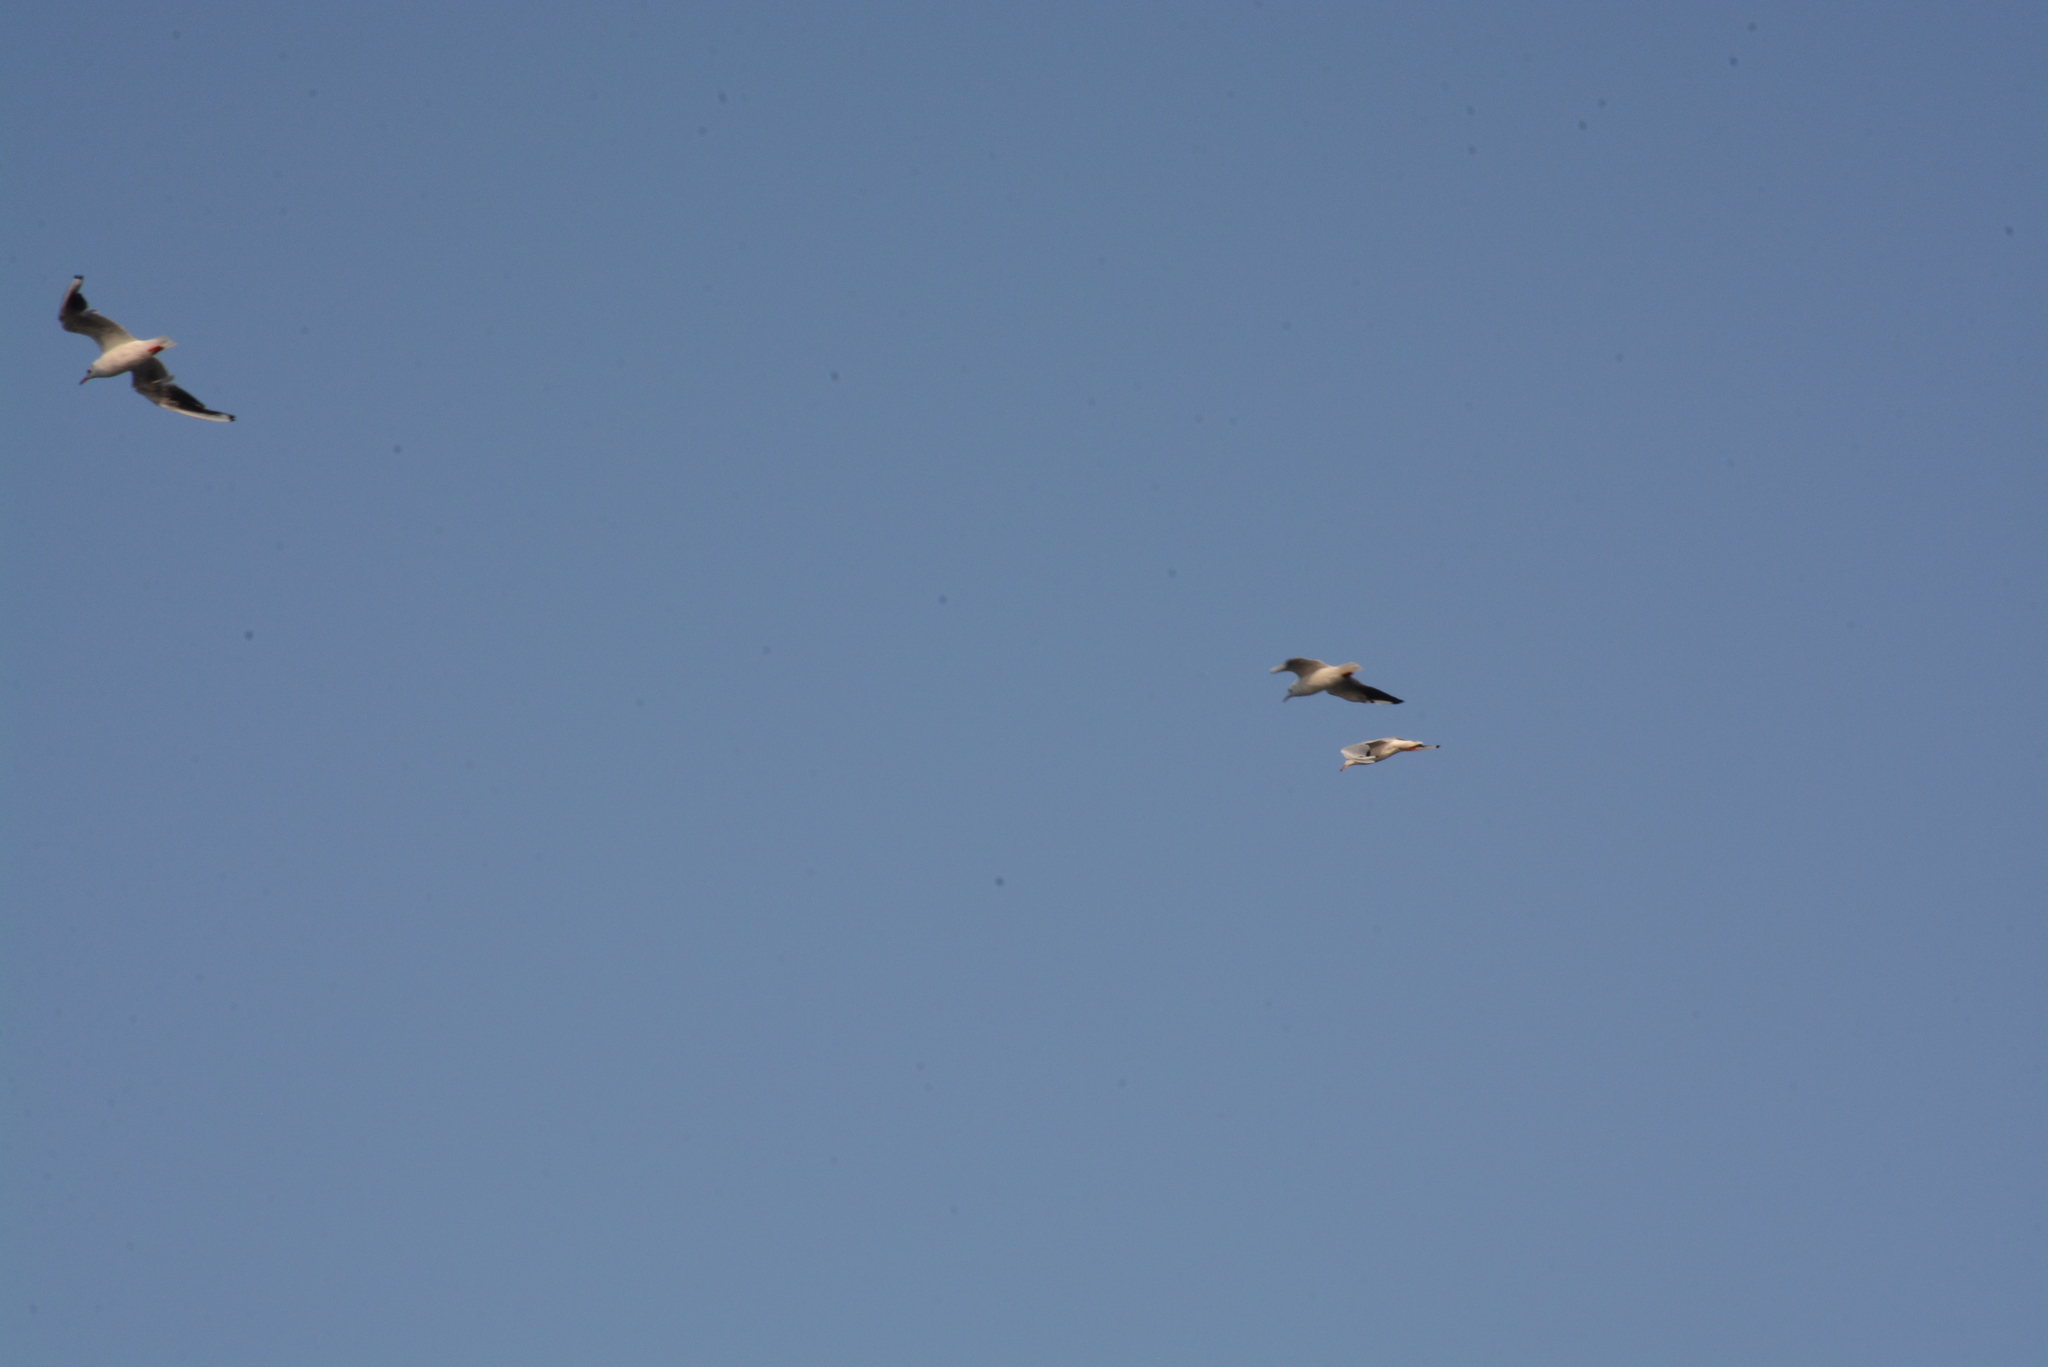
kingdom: Animalia
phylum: Chordata
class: Aves
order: Charadriiformes
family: Laridae
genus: Larus
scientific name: Larus michahellis
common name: Yellow-legged gull
